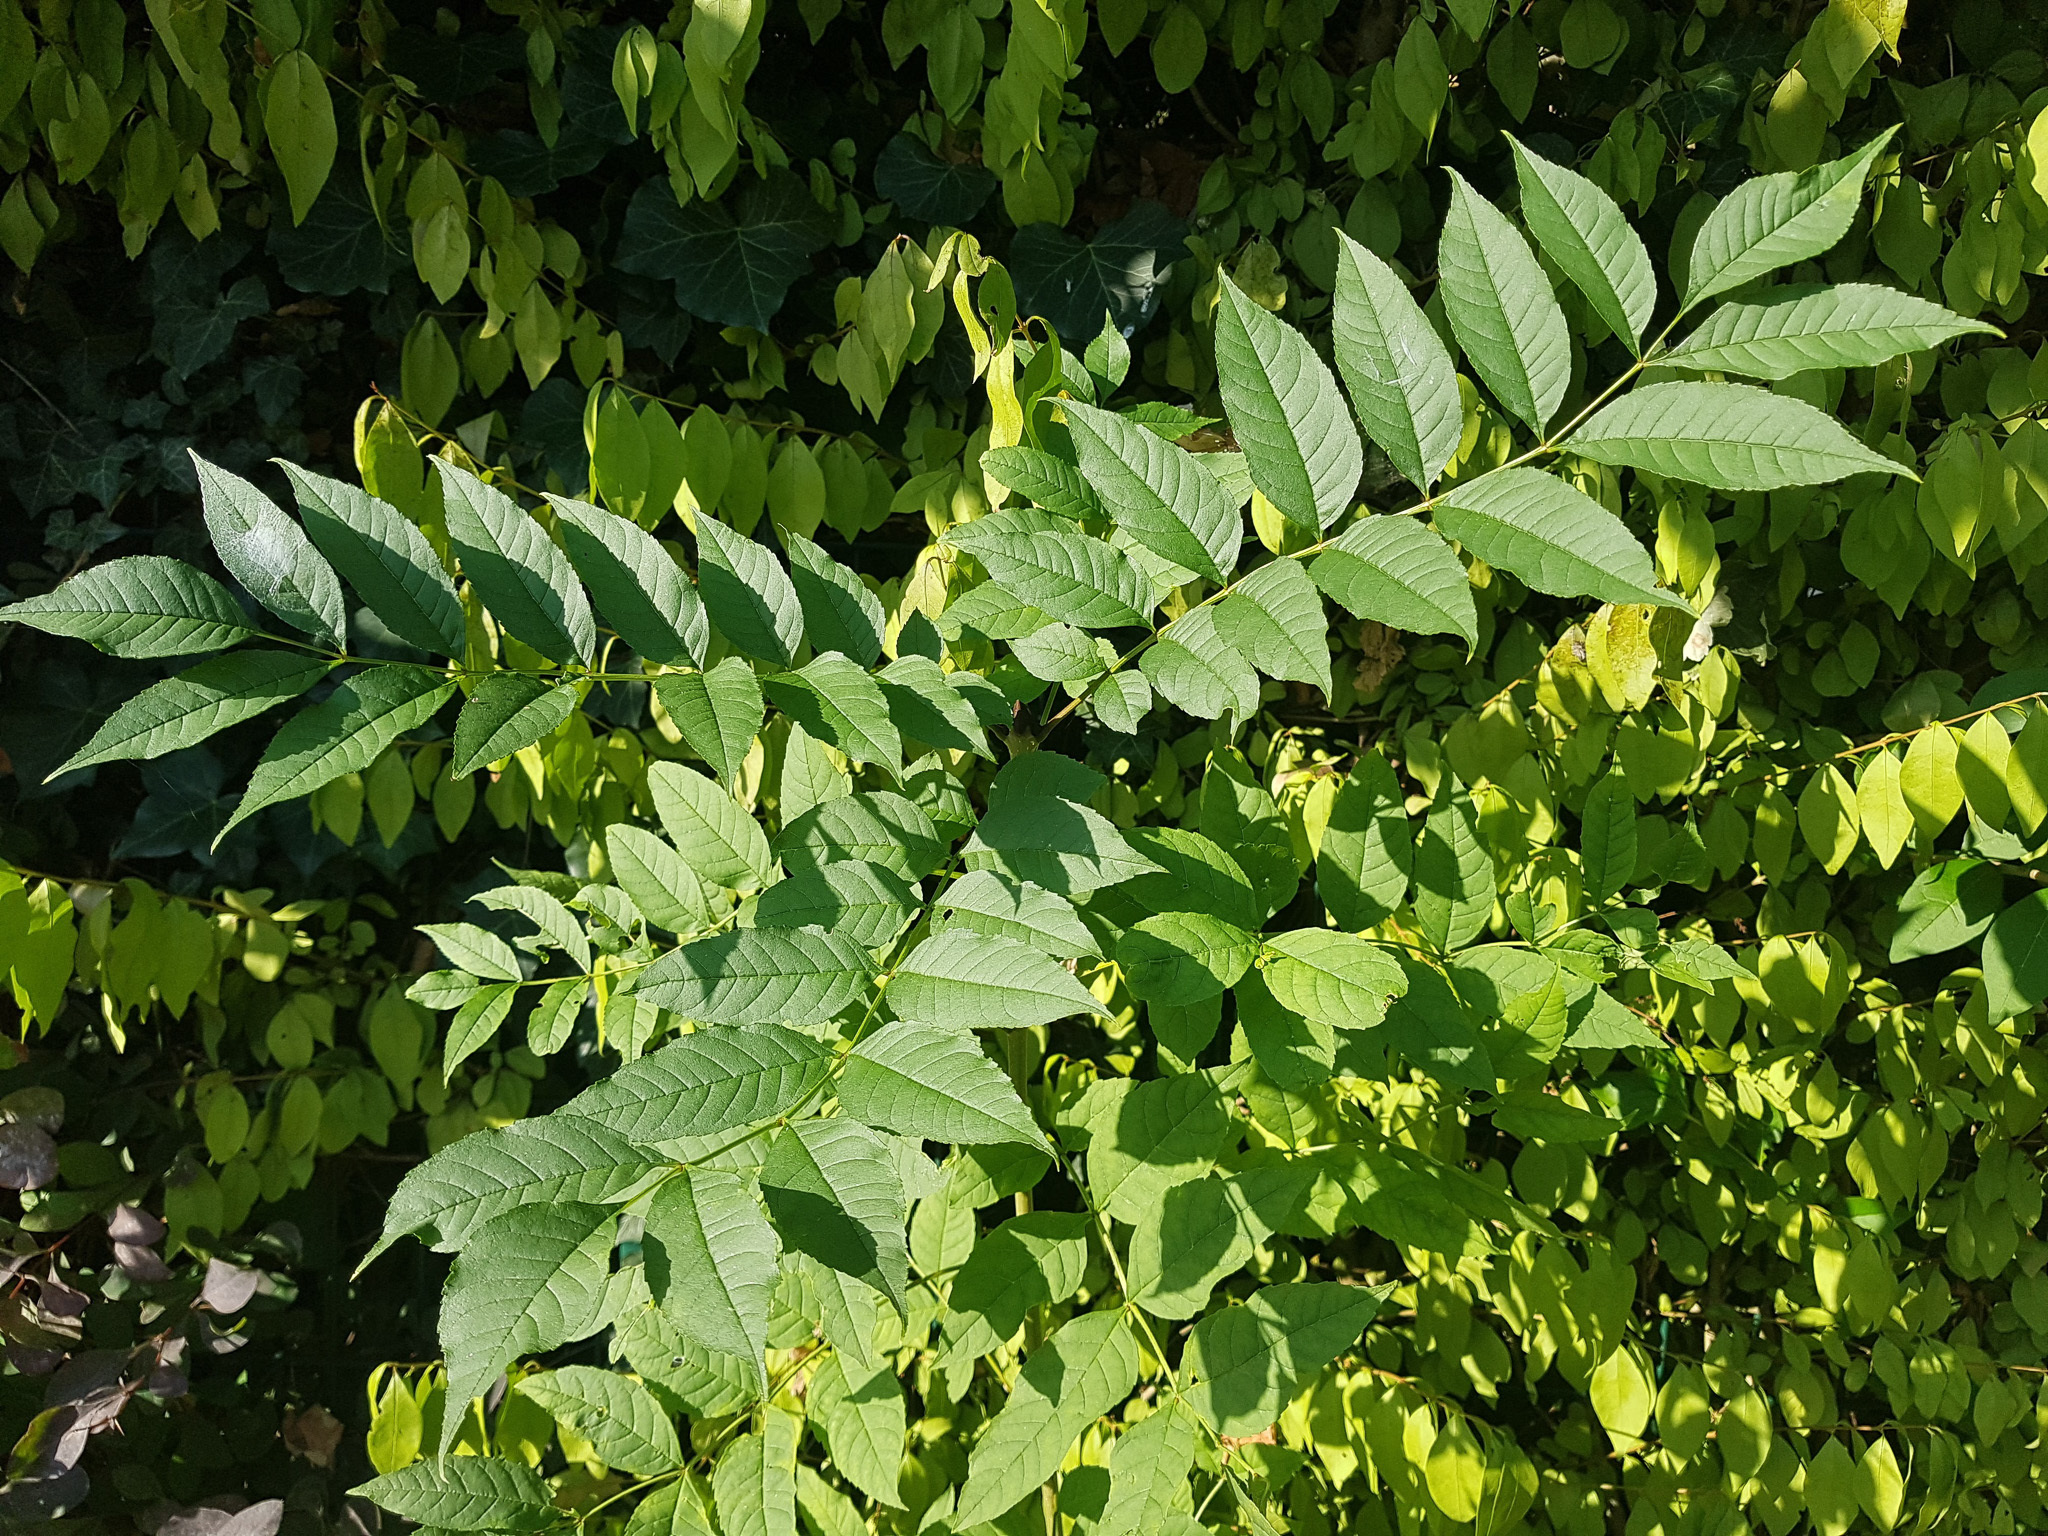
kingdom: Plantae
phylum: Tracheophyta
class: Magnoliopsida
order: Lamiales
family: Oleaceae
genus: Fraxinus
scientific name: Fraxinus excelsior
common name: European ash
